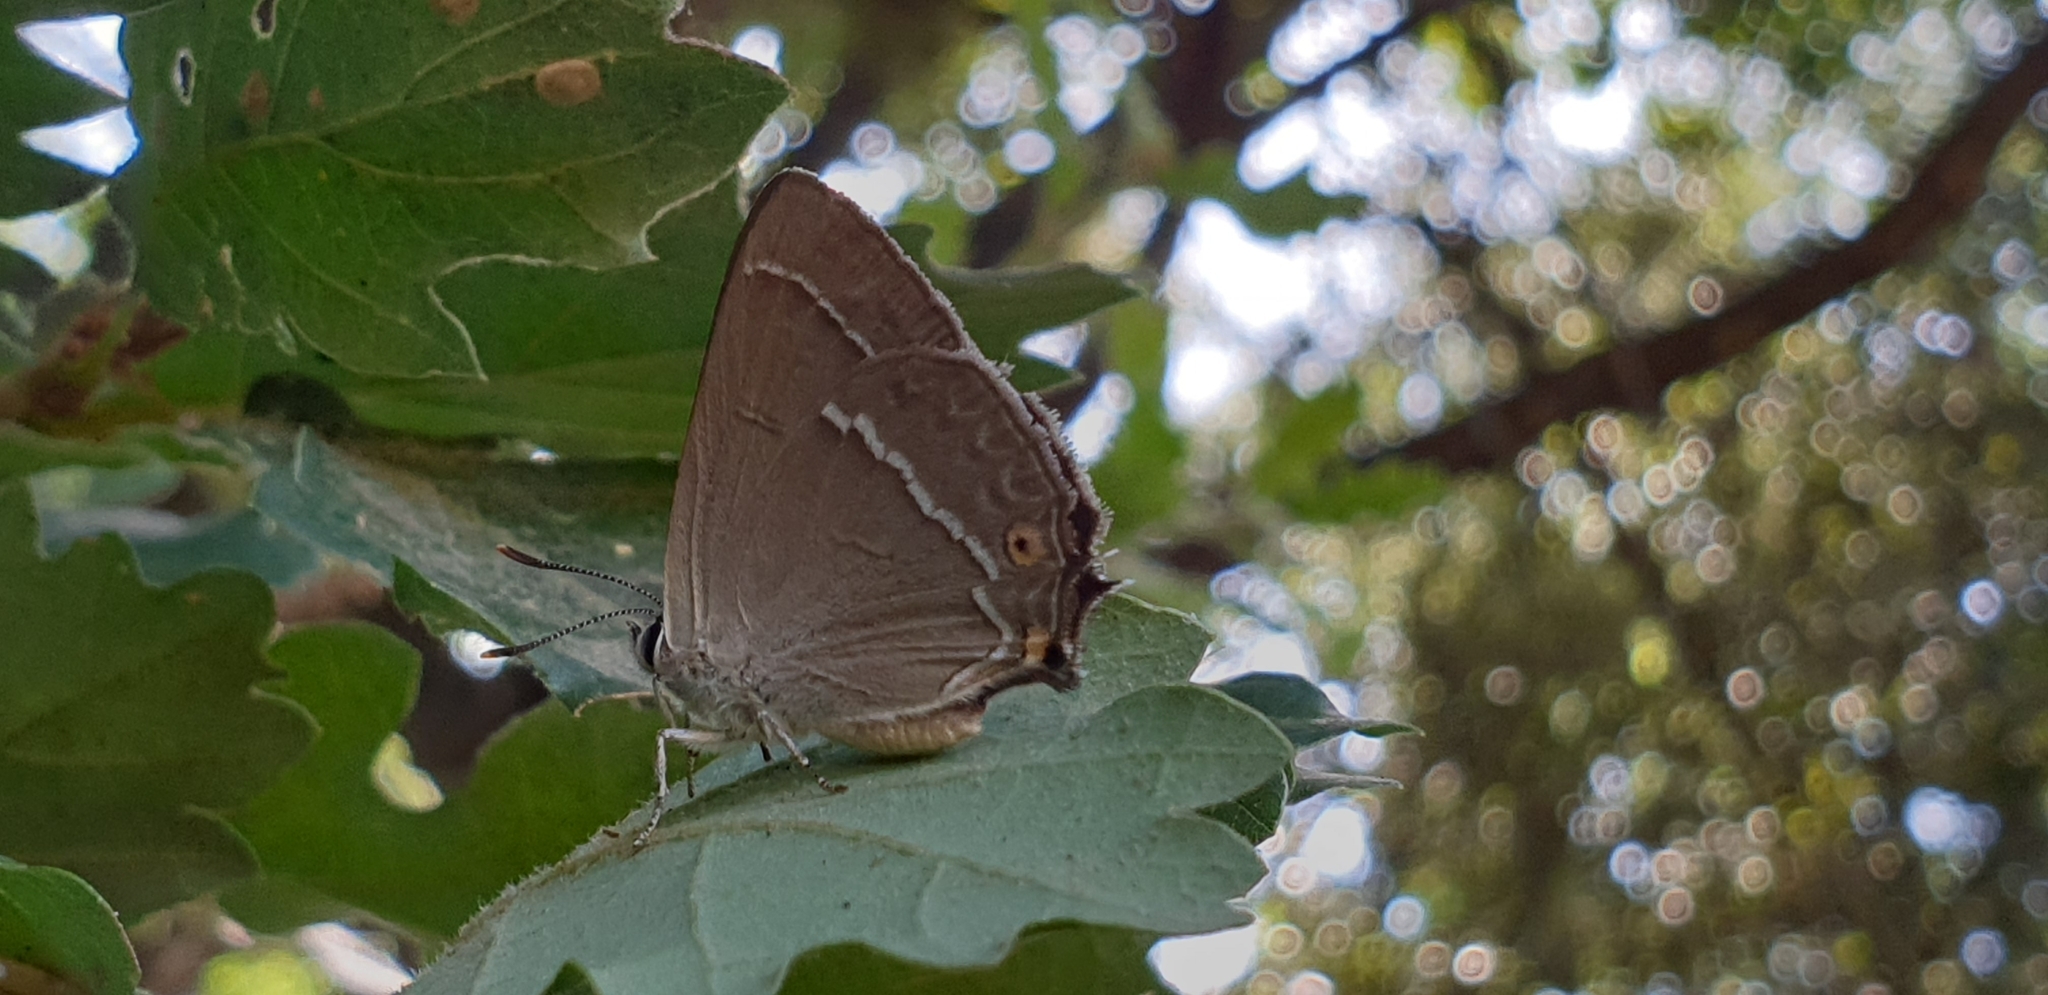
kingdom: Animalia
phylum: Arthropoda
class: Insecta
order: Lepidoptera
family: Lycaenidae
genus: Quercusia
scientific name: Quercusia quercus
